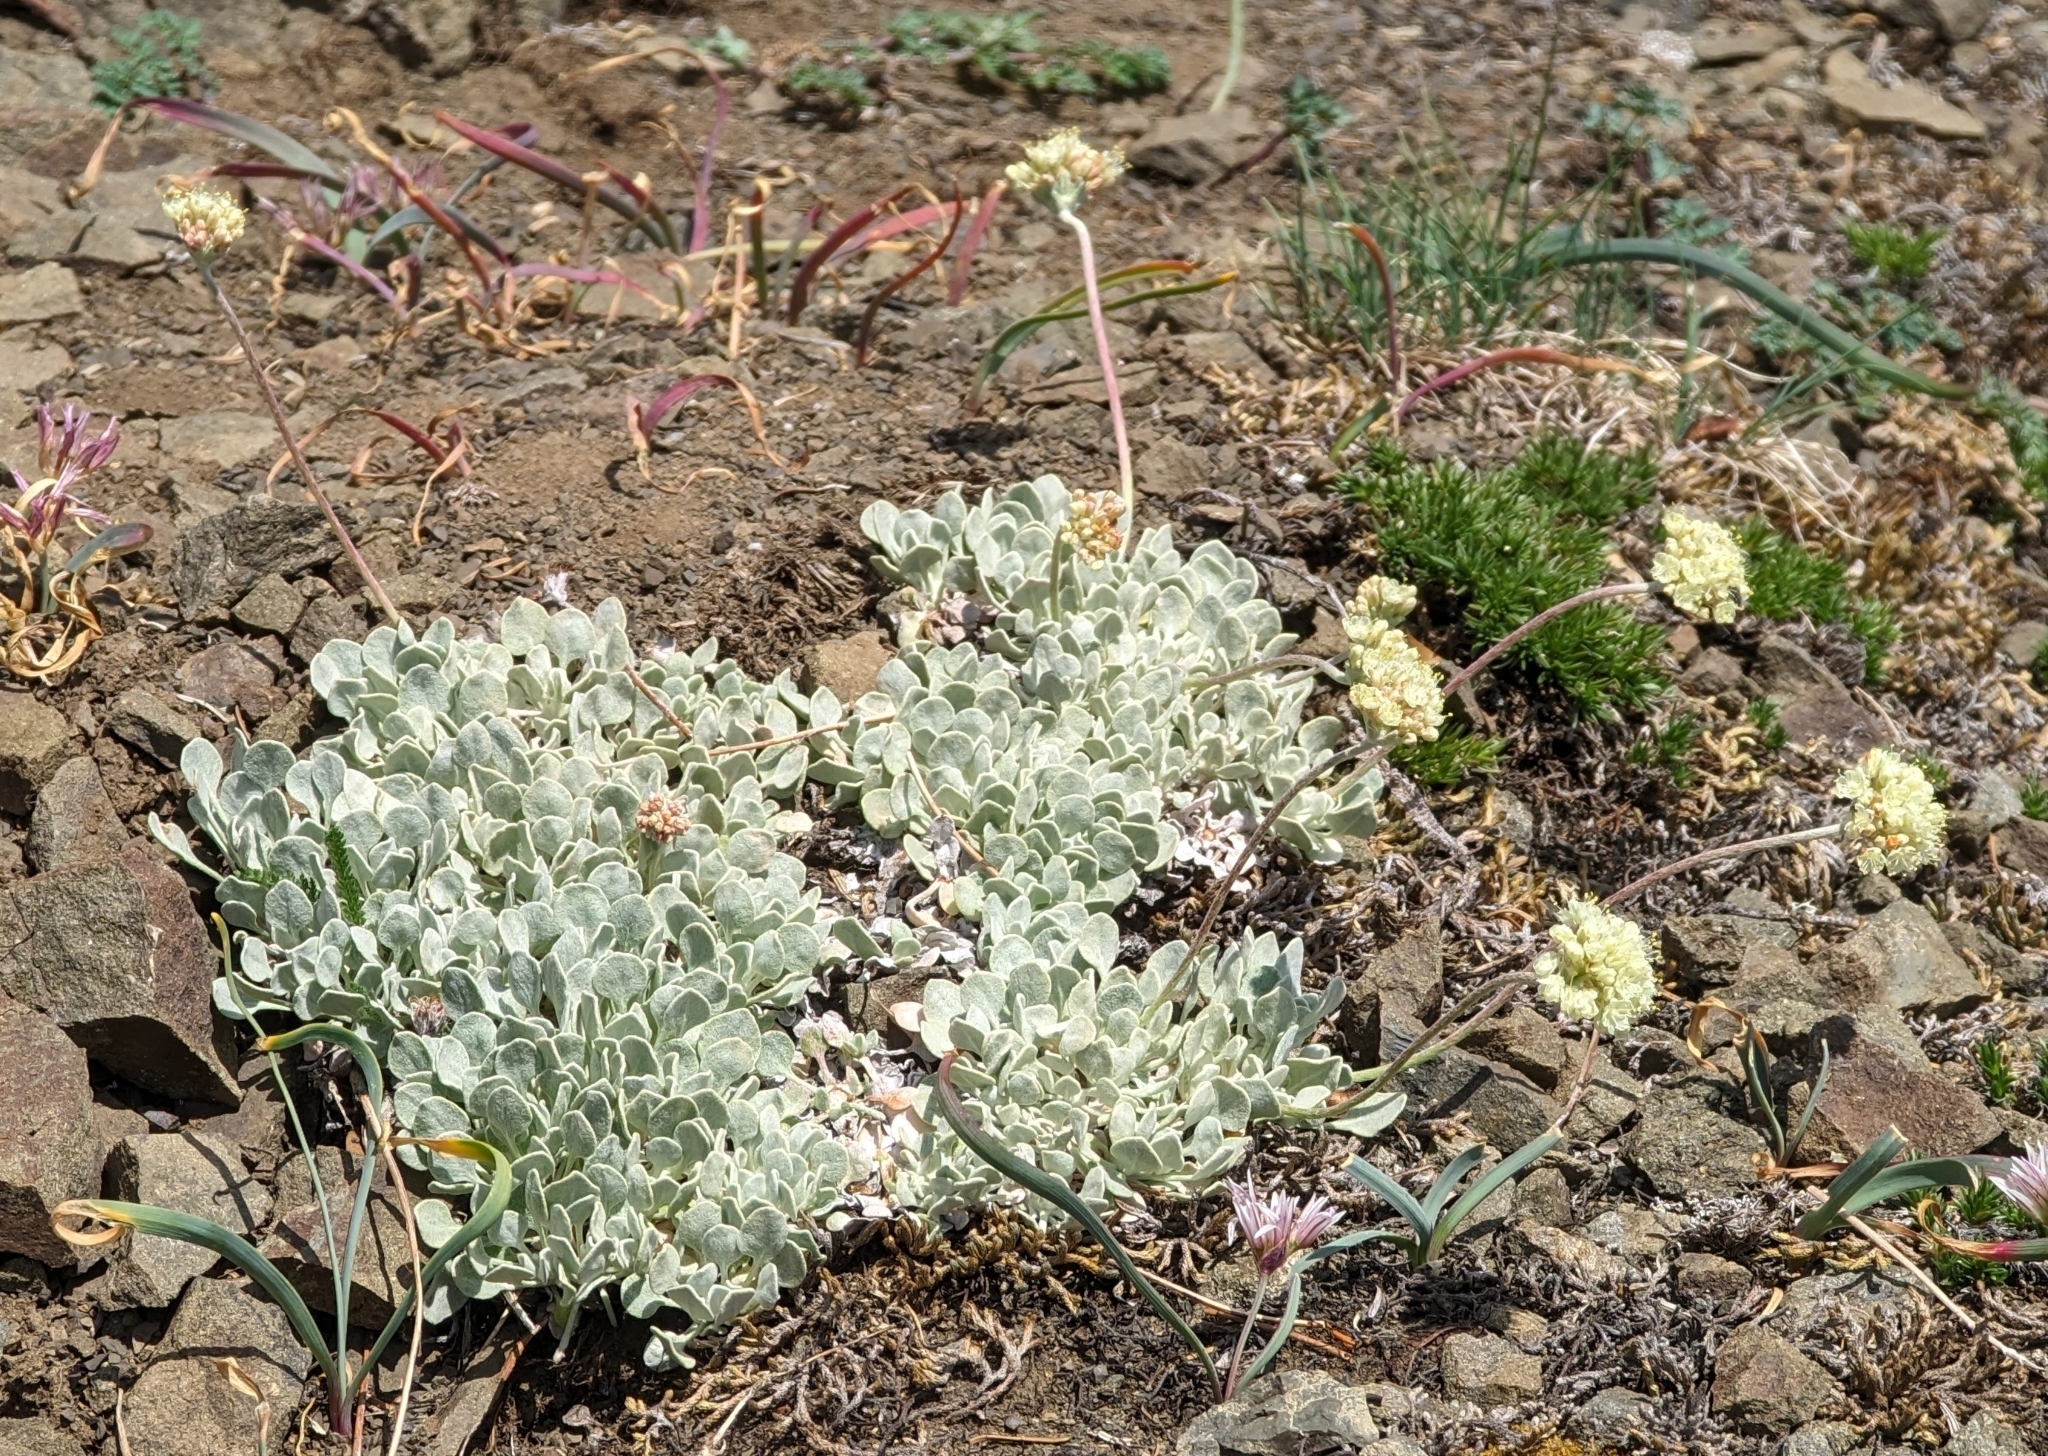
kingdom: Plantae
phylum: Tracheophyta
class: Magnoliopsida
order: Caryophyllales
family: Polygonaceae
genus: Eriogonum
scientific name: Eriogonum ovalifolium
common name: Cushion buckwheat
